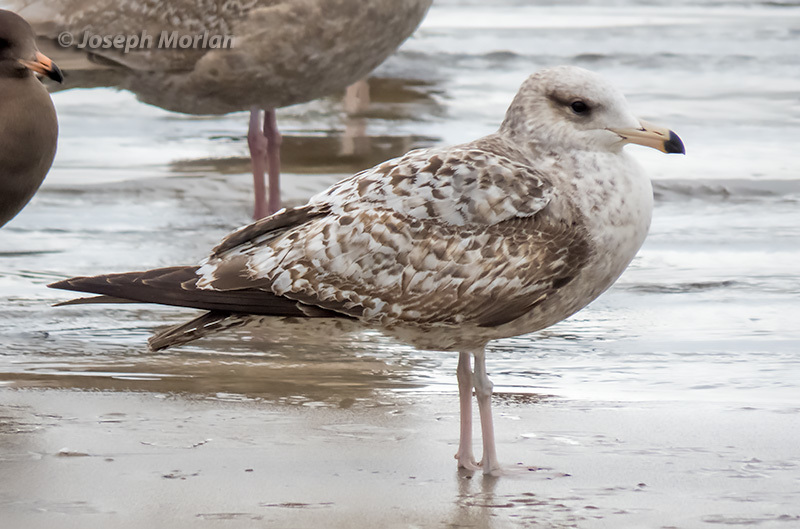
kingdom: Animalia
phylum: Chordata
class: Aves
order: Charadriiformes
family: Laridae
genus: Larus
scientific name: Larus californicus
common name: California gull
